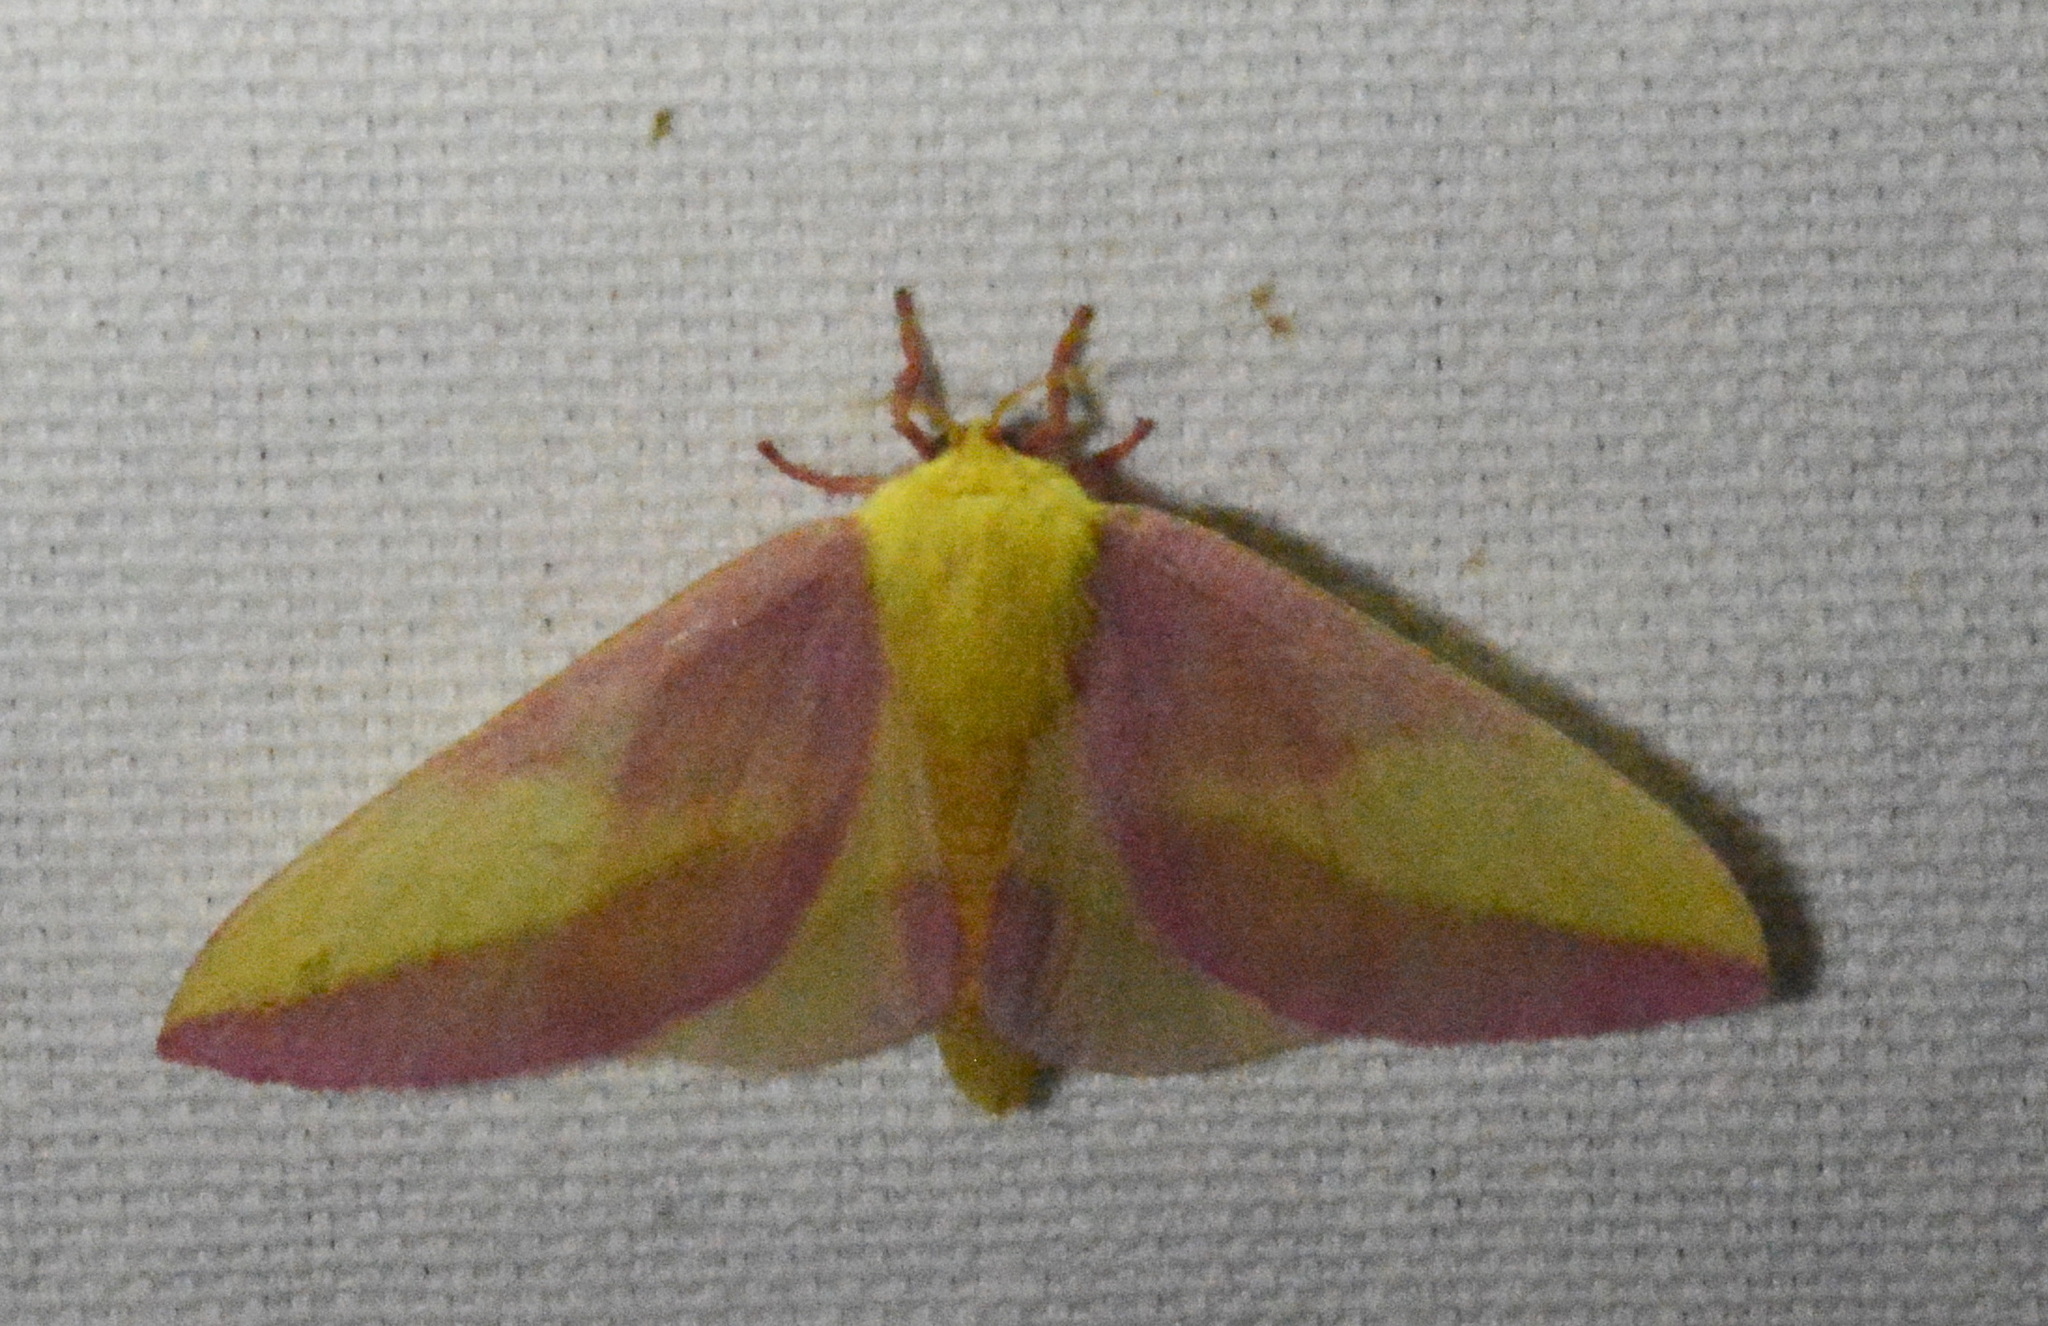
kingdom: Animalia
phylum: Arthropoda
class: Insecta
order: Lepidoptera
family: Saturniidae
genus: Dryocampa
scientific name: Dryocampa rubicunda
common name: Rosy maple moth
